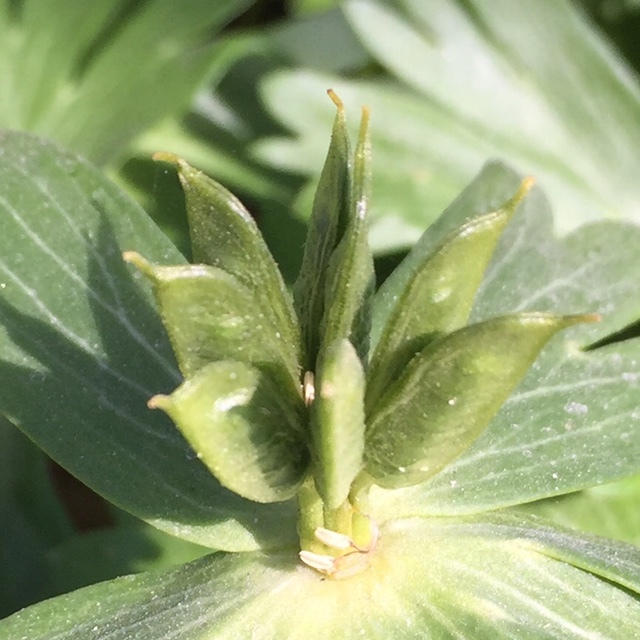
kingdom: Plantae
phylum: Tracheophyta
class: Magnoliopsida
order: Ranunculales
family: Ranunculaceae
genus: Eranthis
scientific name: Eranthis hyemalis
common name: Winter aconite
